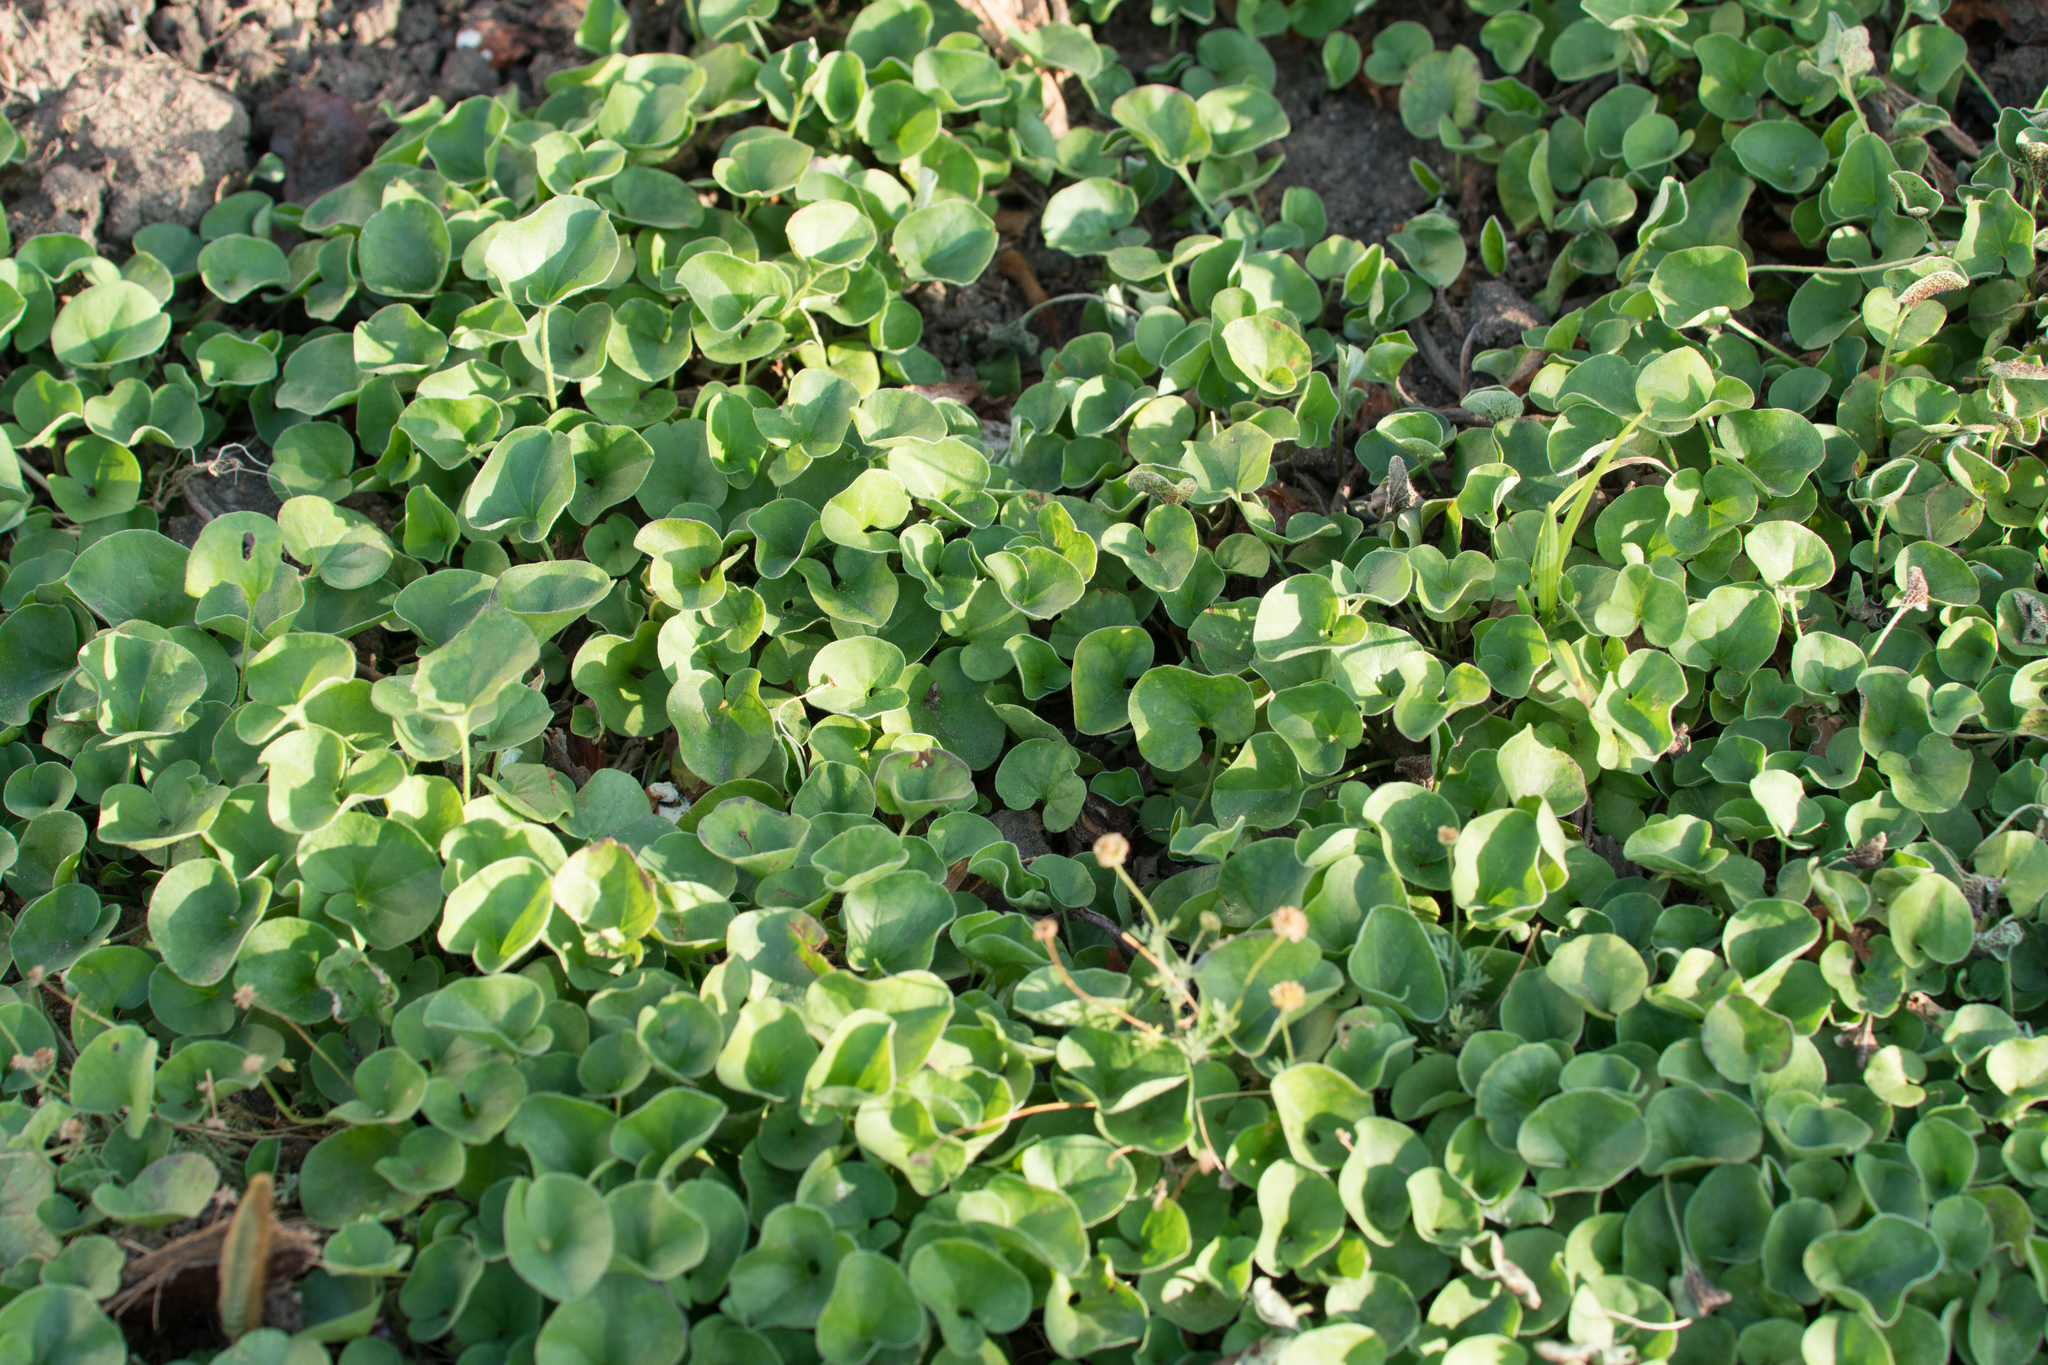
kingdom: Plantae
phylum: Tracheophyta
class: Magnoliopsida
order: Solanales
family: Convolvulaceae
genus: Dichondra
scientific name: Dichondra micrantha
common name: Kidneyweed
